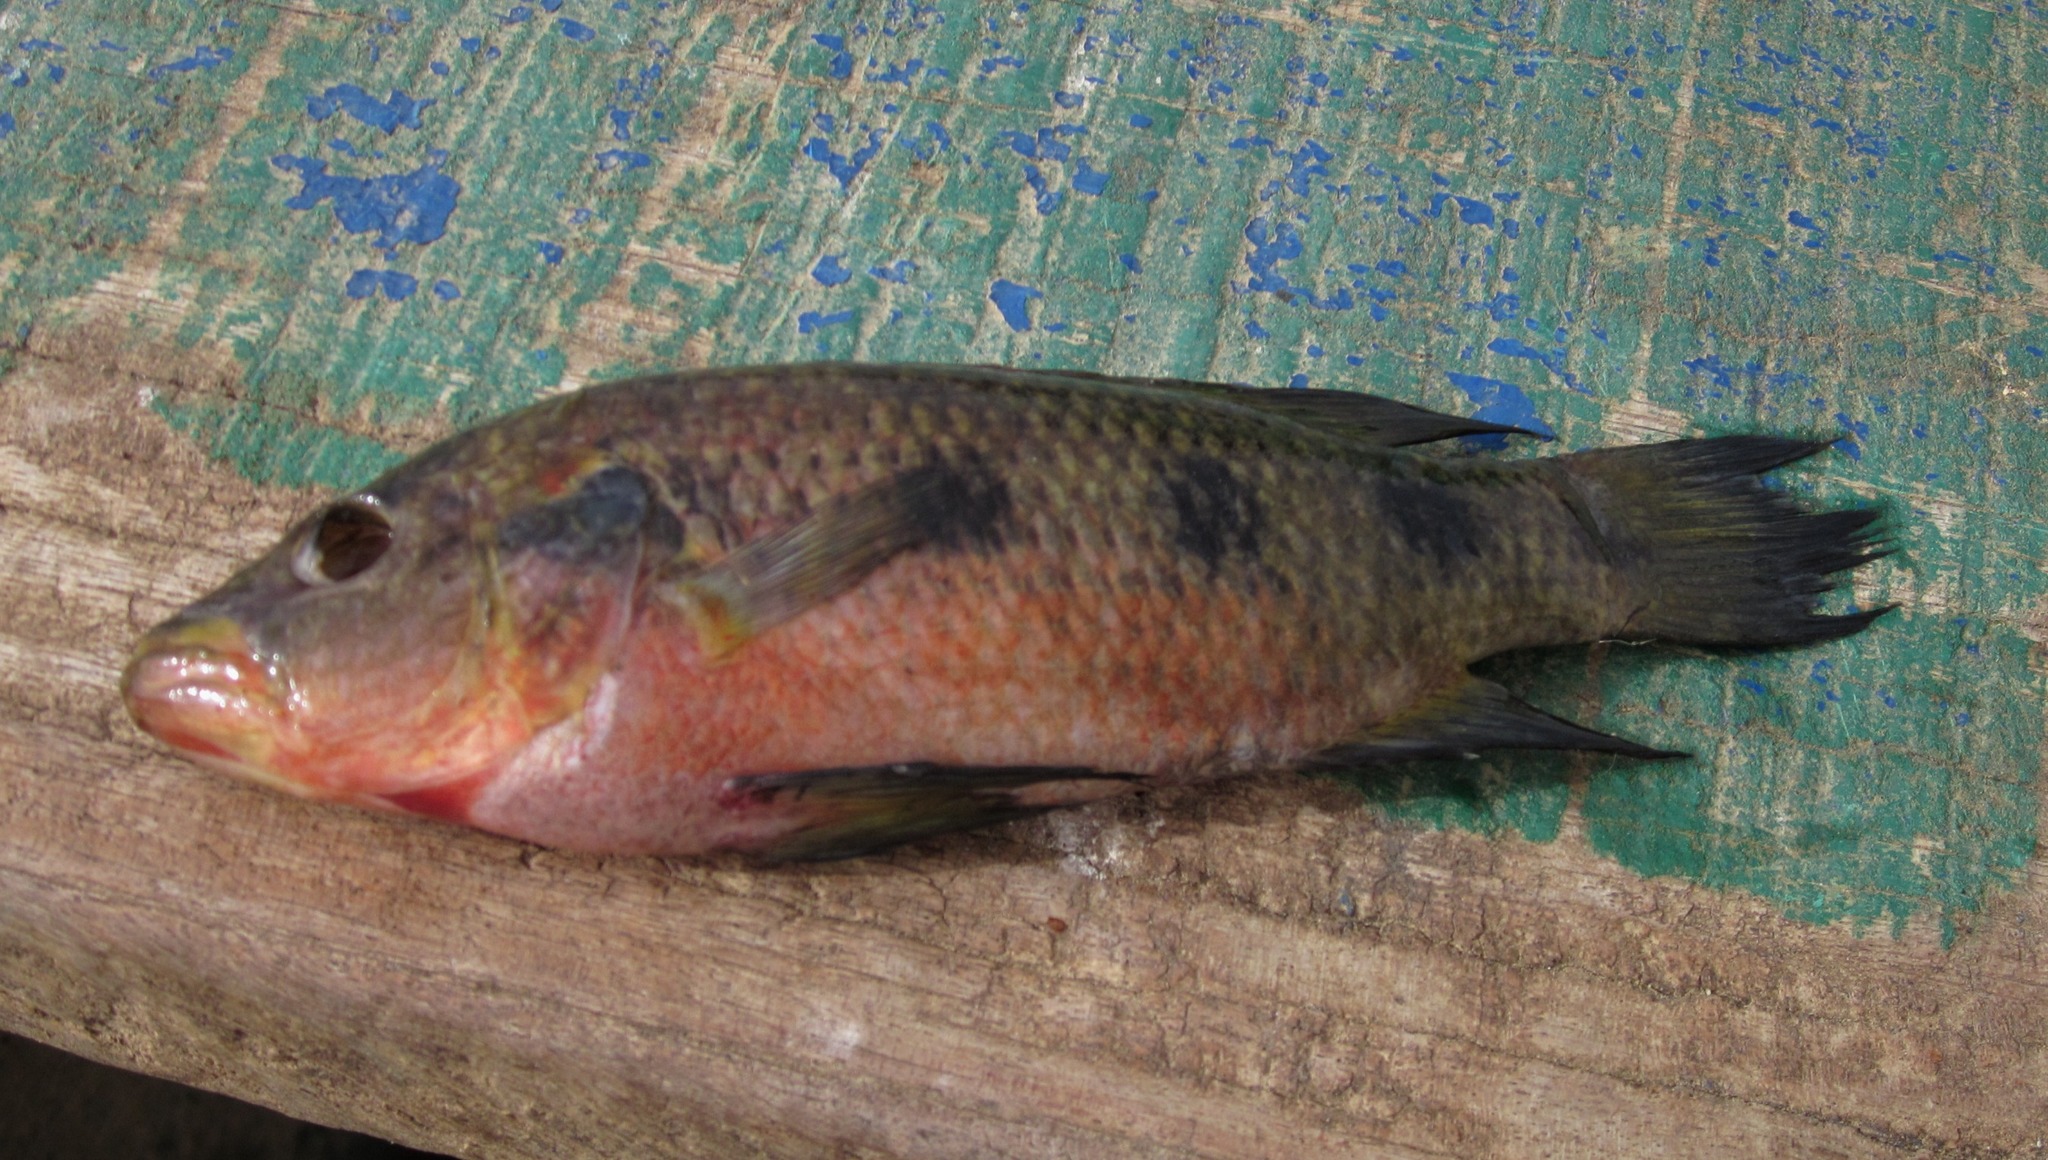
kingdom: Animalia
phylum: Chordata
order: Perciformes
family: Cichlidae
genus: Hemichromis
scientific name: Hemichromis fasciatus
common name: Banded jewelfish
